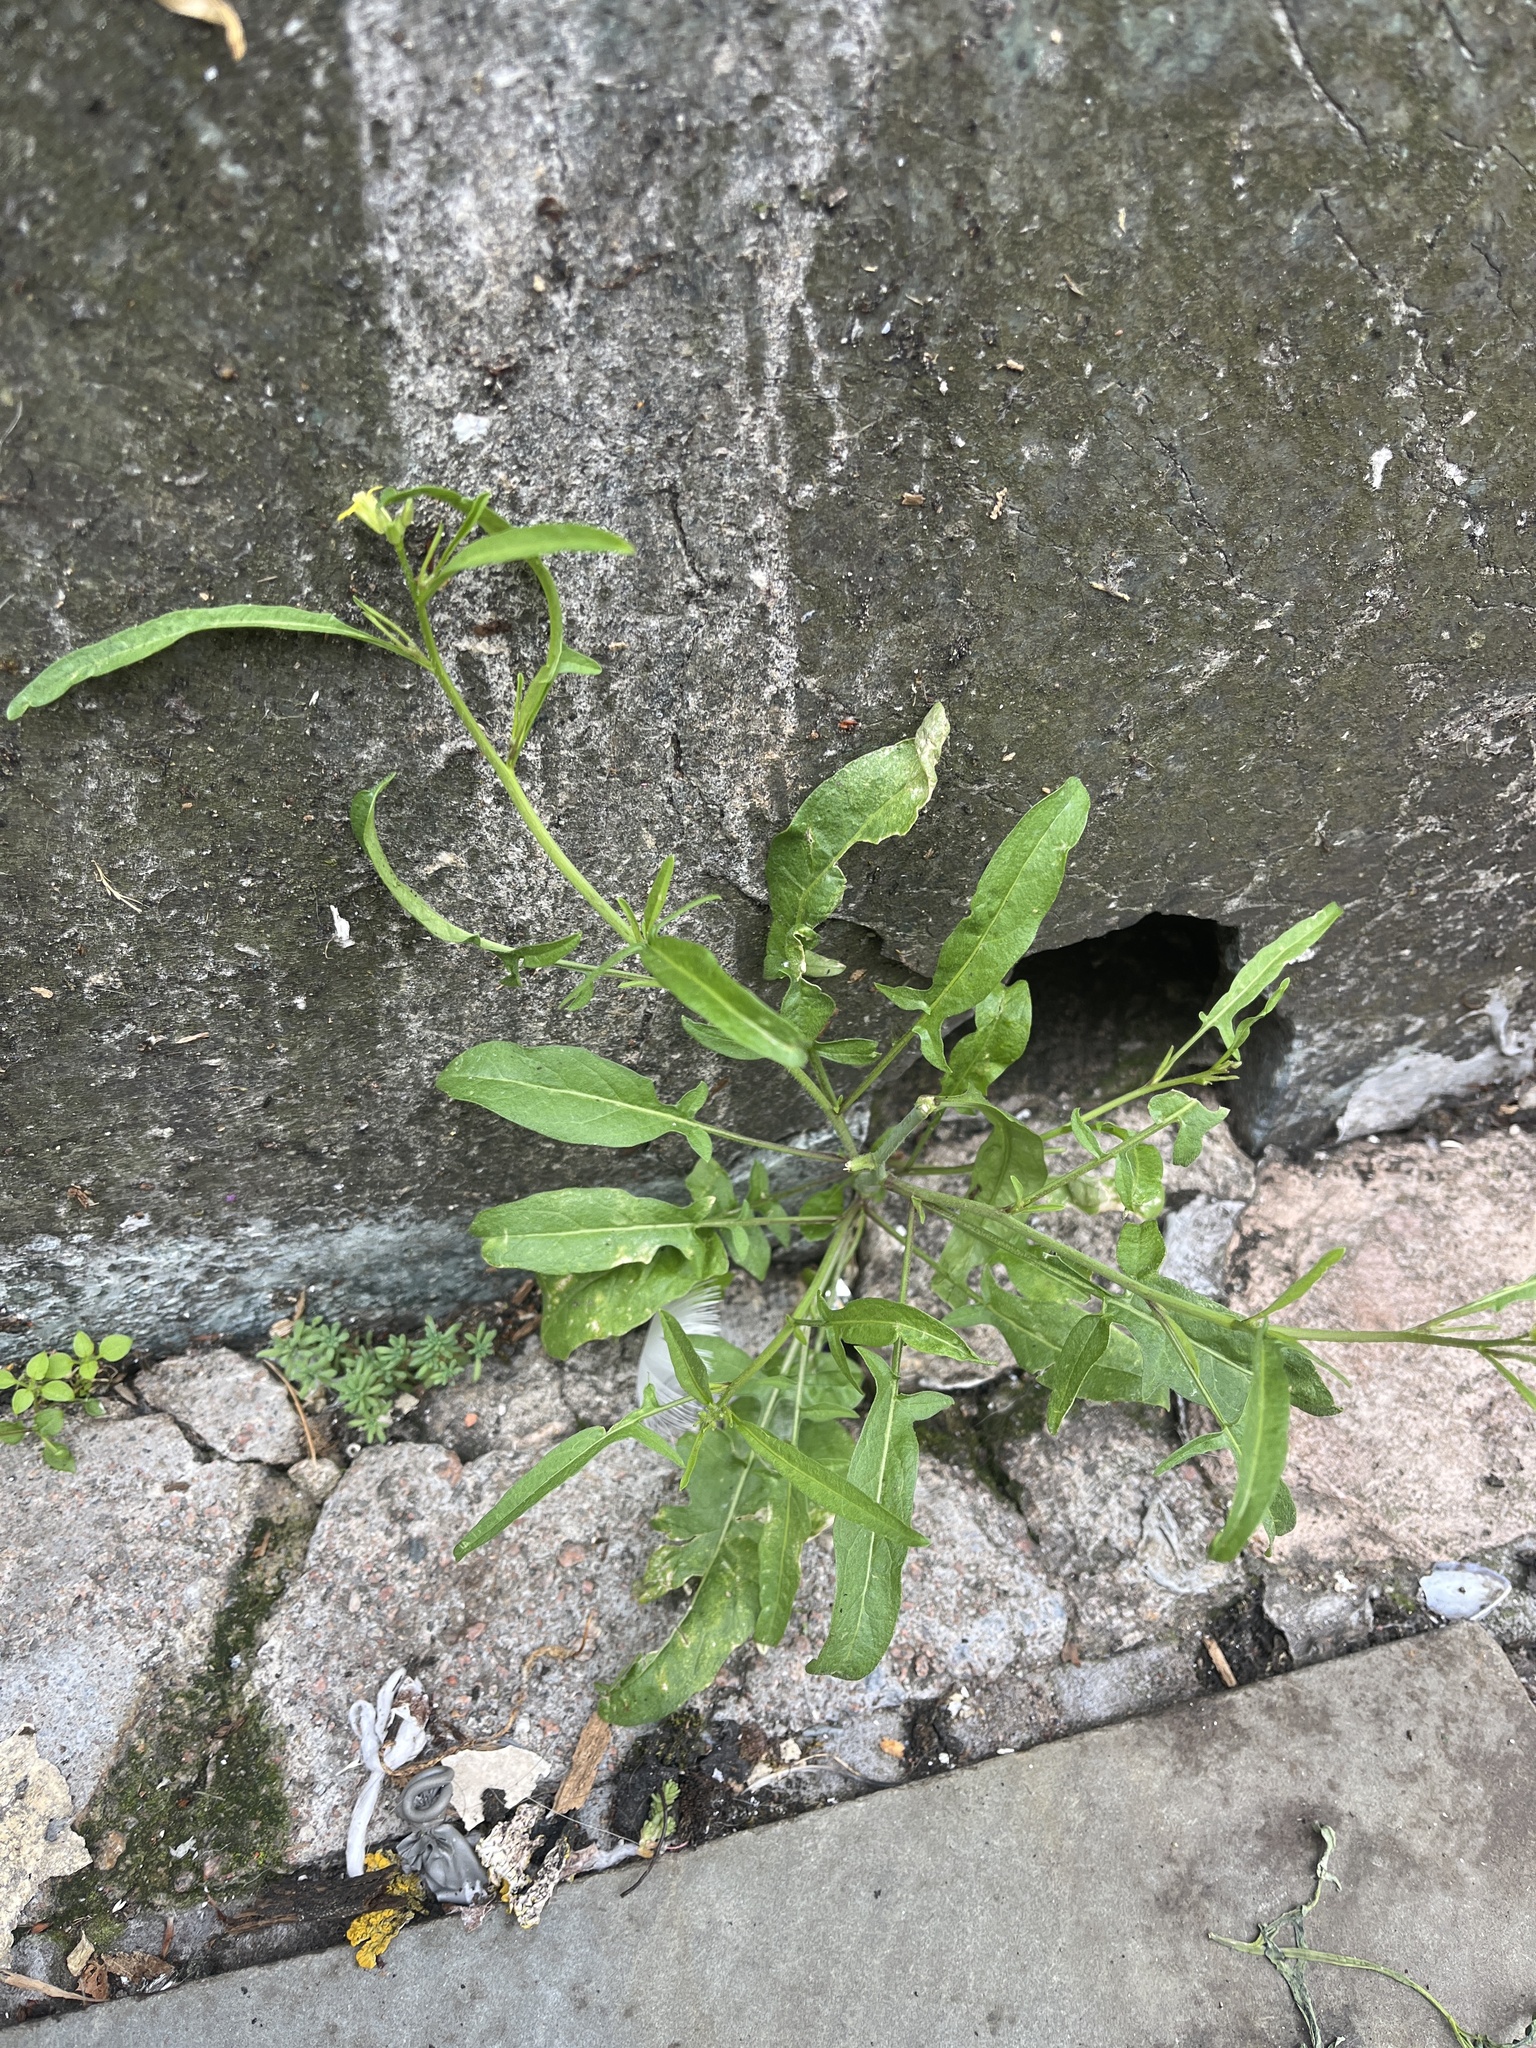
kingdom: Plantae
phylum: Tracheophyta
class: Magnoliopsida
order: Brassicales
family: Brassicaceae
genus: Diplotaxis
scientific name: Diplotaxis muralis
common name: Annual wall-rocket
